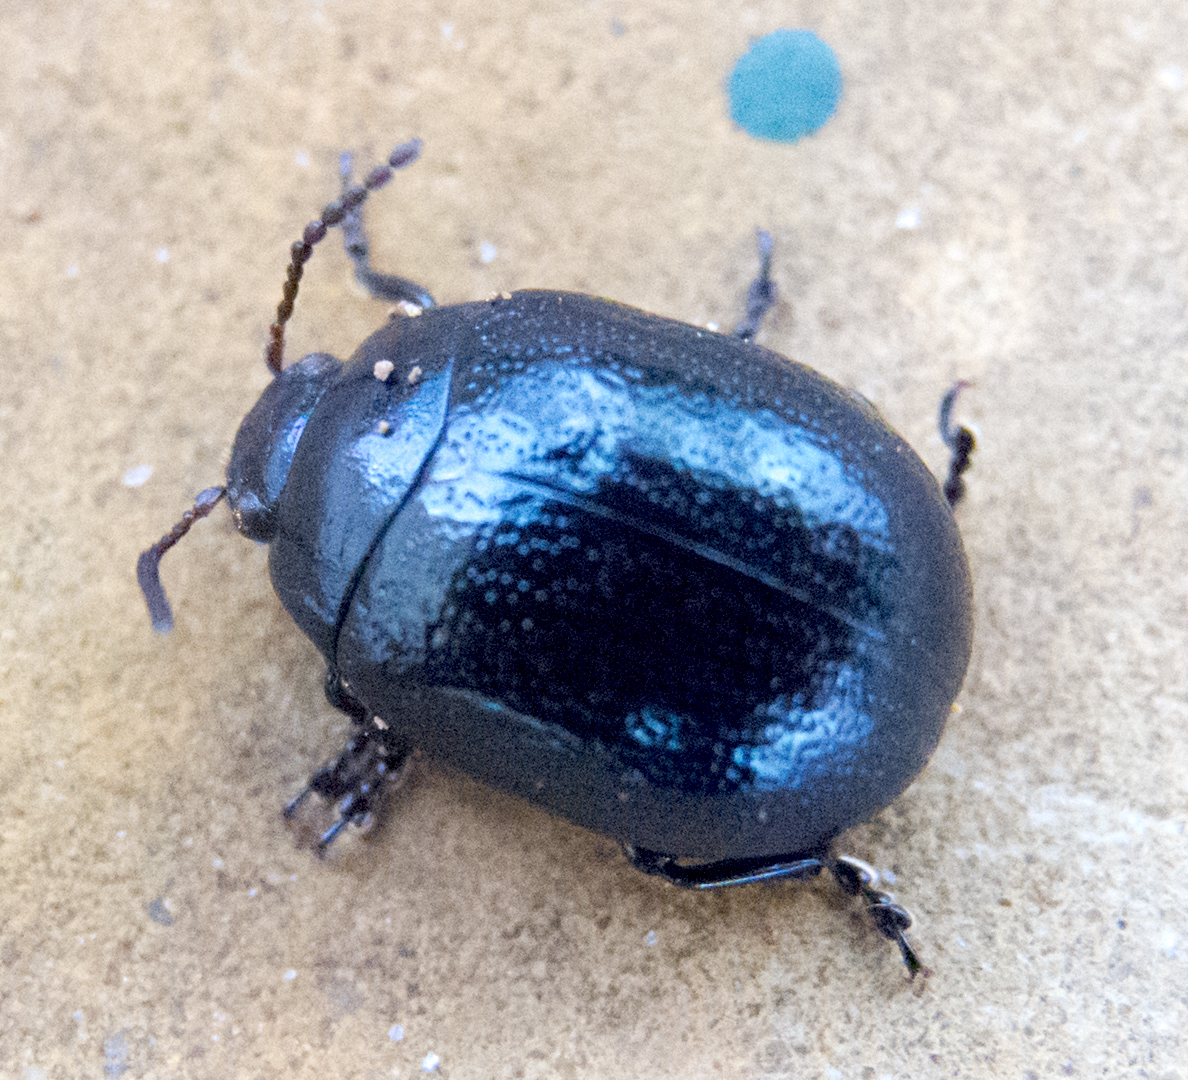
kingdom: Animalia
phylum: Arthropoda
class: Insecta
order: Coleoptera
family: Chrysomelidae
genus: Chrysolina
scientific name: Chrysolina haemoptera
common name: Plantain leaf beetle
